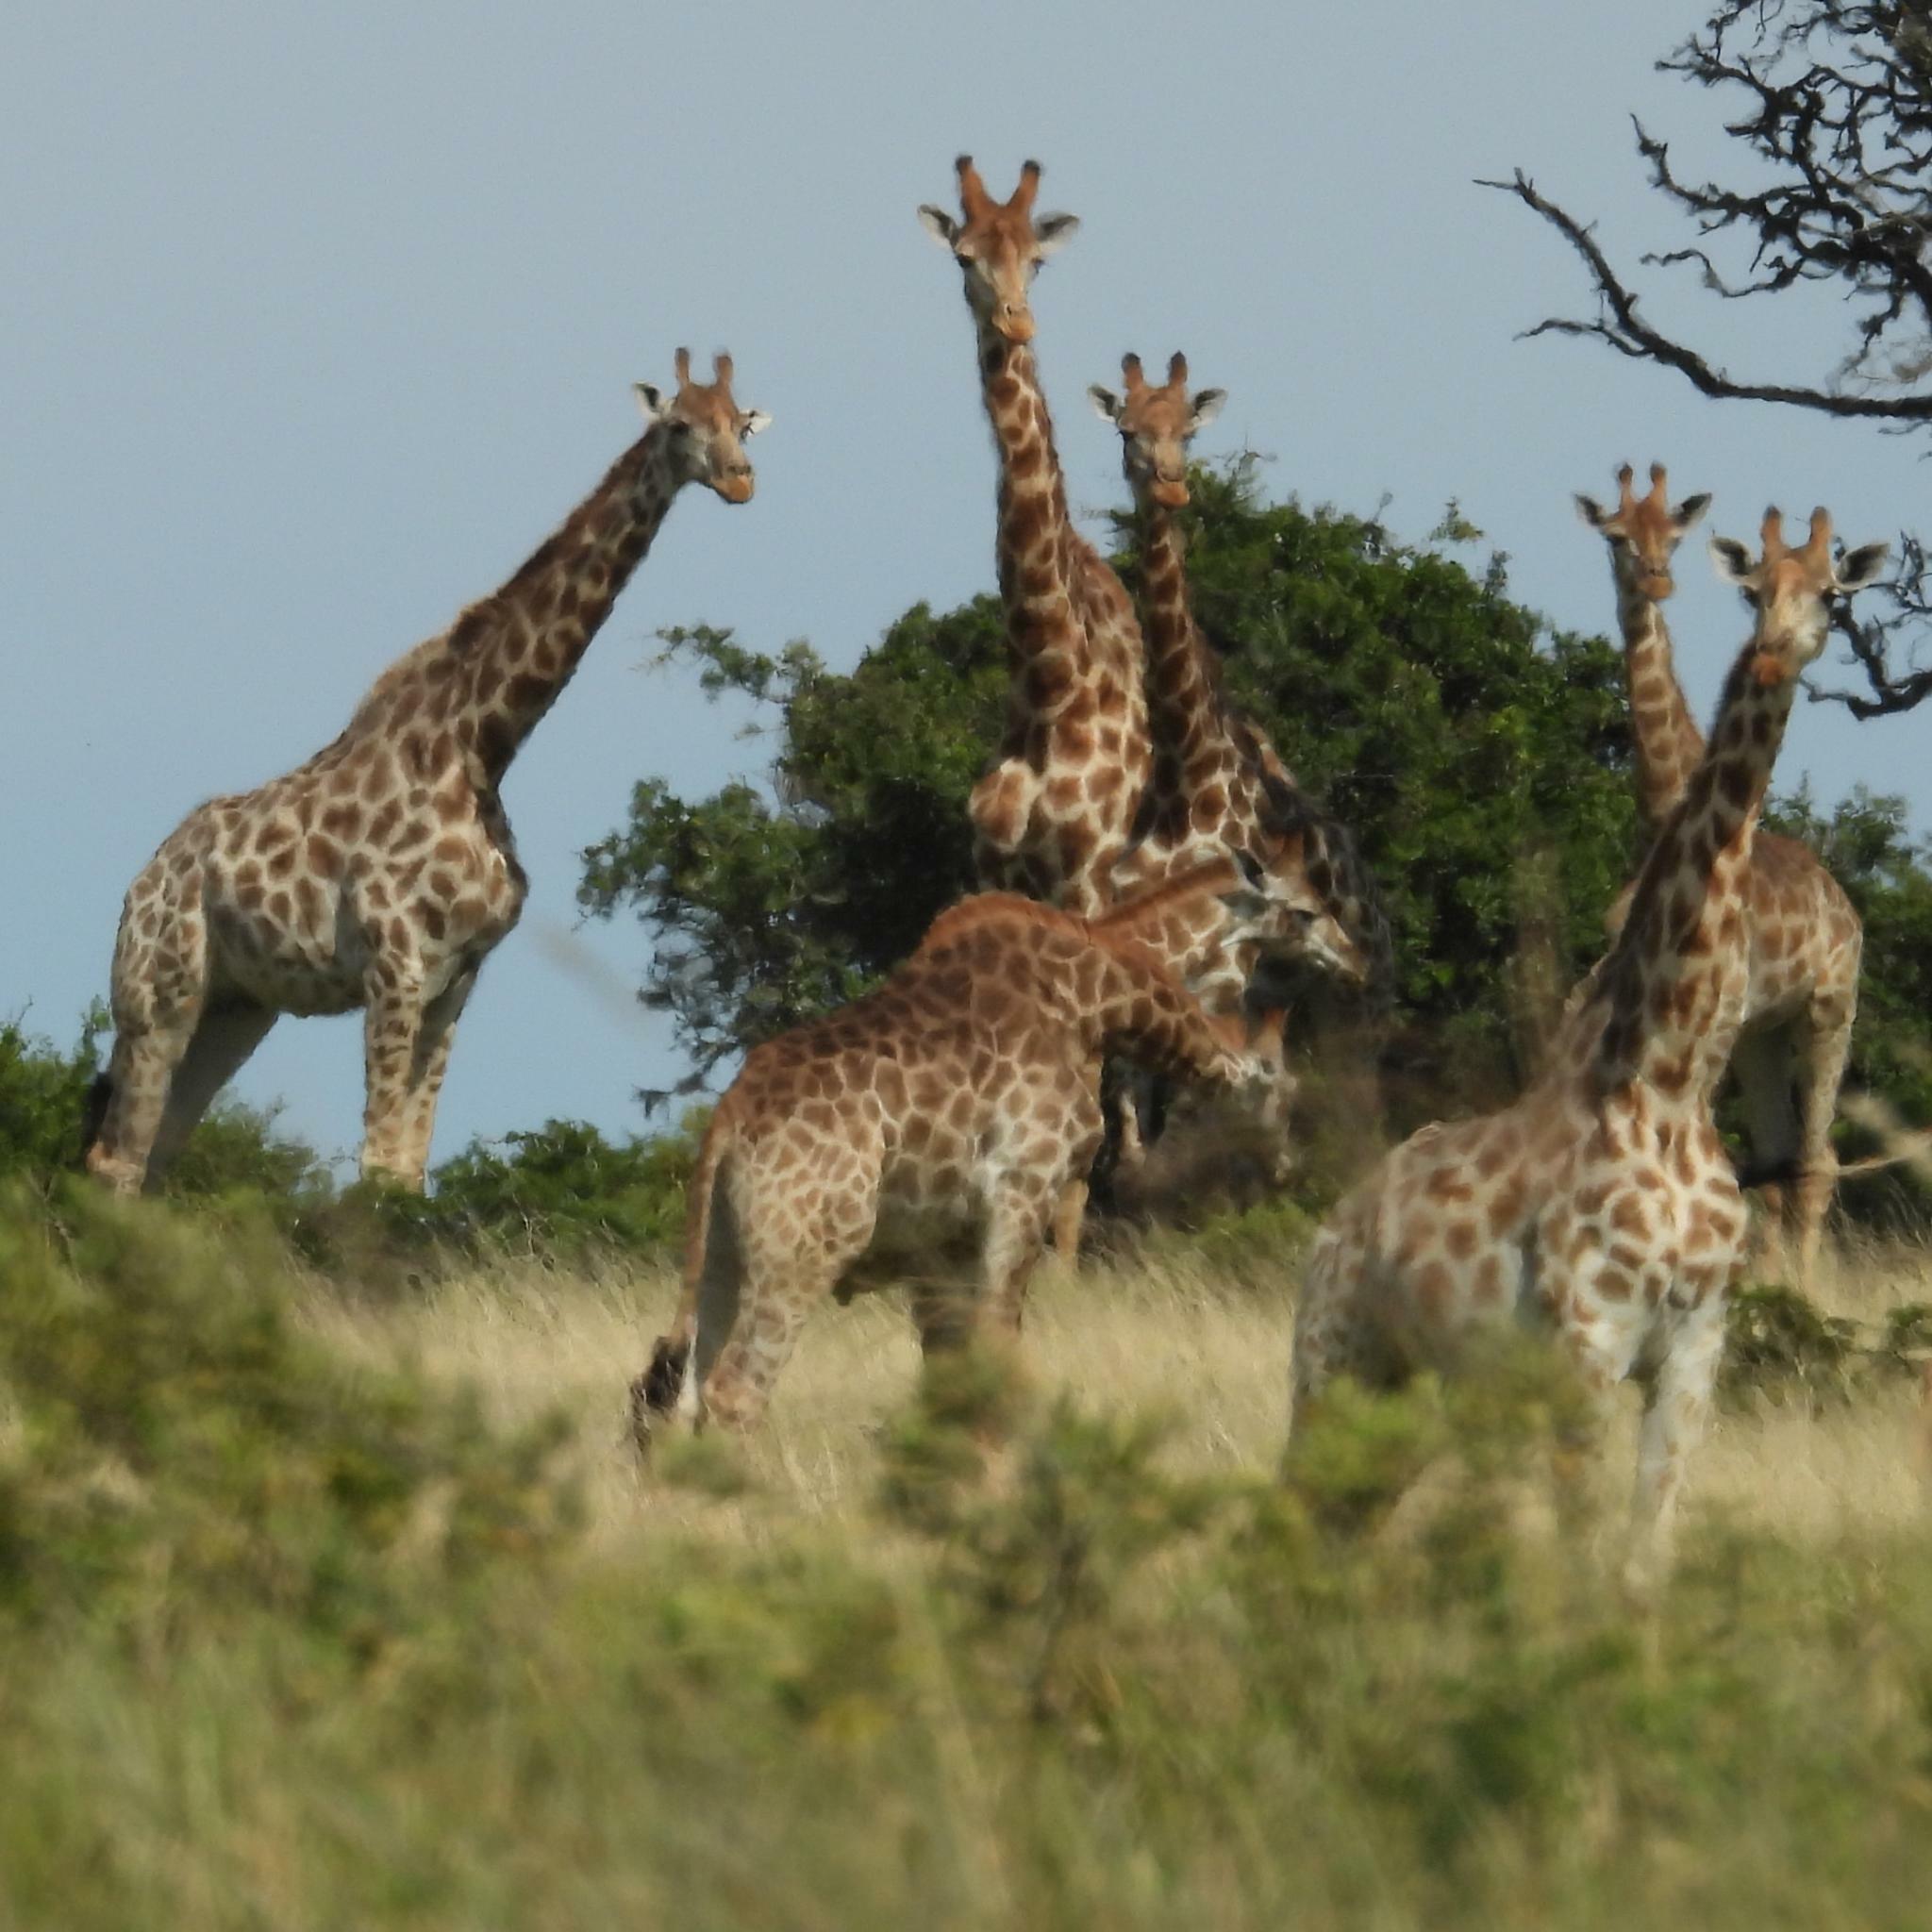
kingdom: Animalia
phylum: Chordata
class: Mammalia
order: Artiodactyla
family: Giraffidae
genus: Giraffa
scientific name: Giraffa giraffa
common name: Southern giraffe
